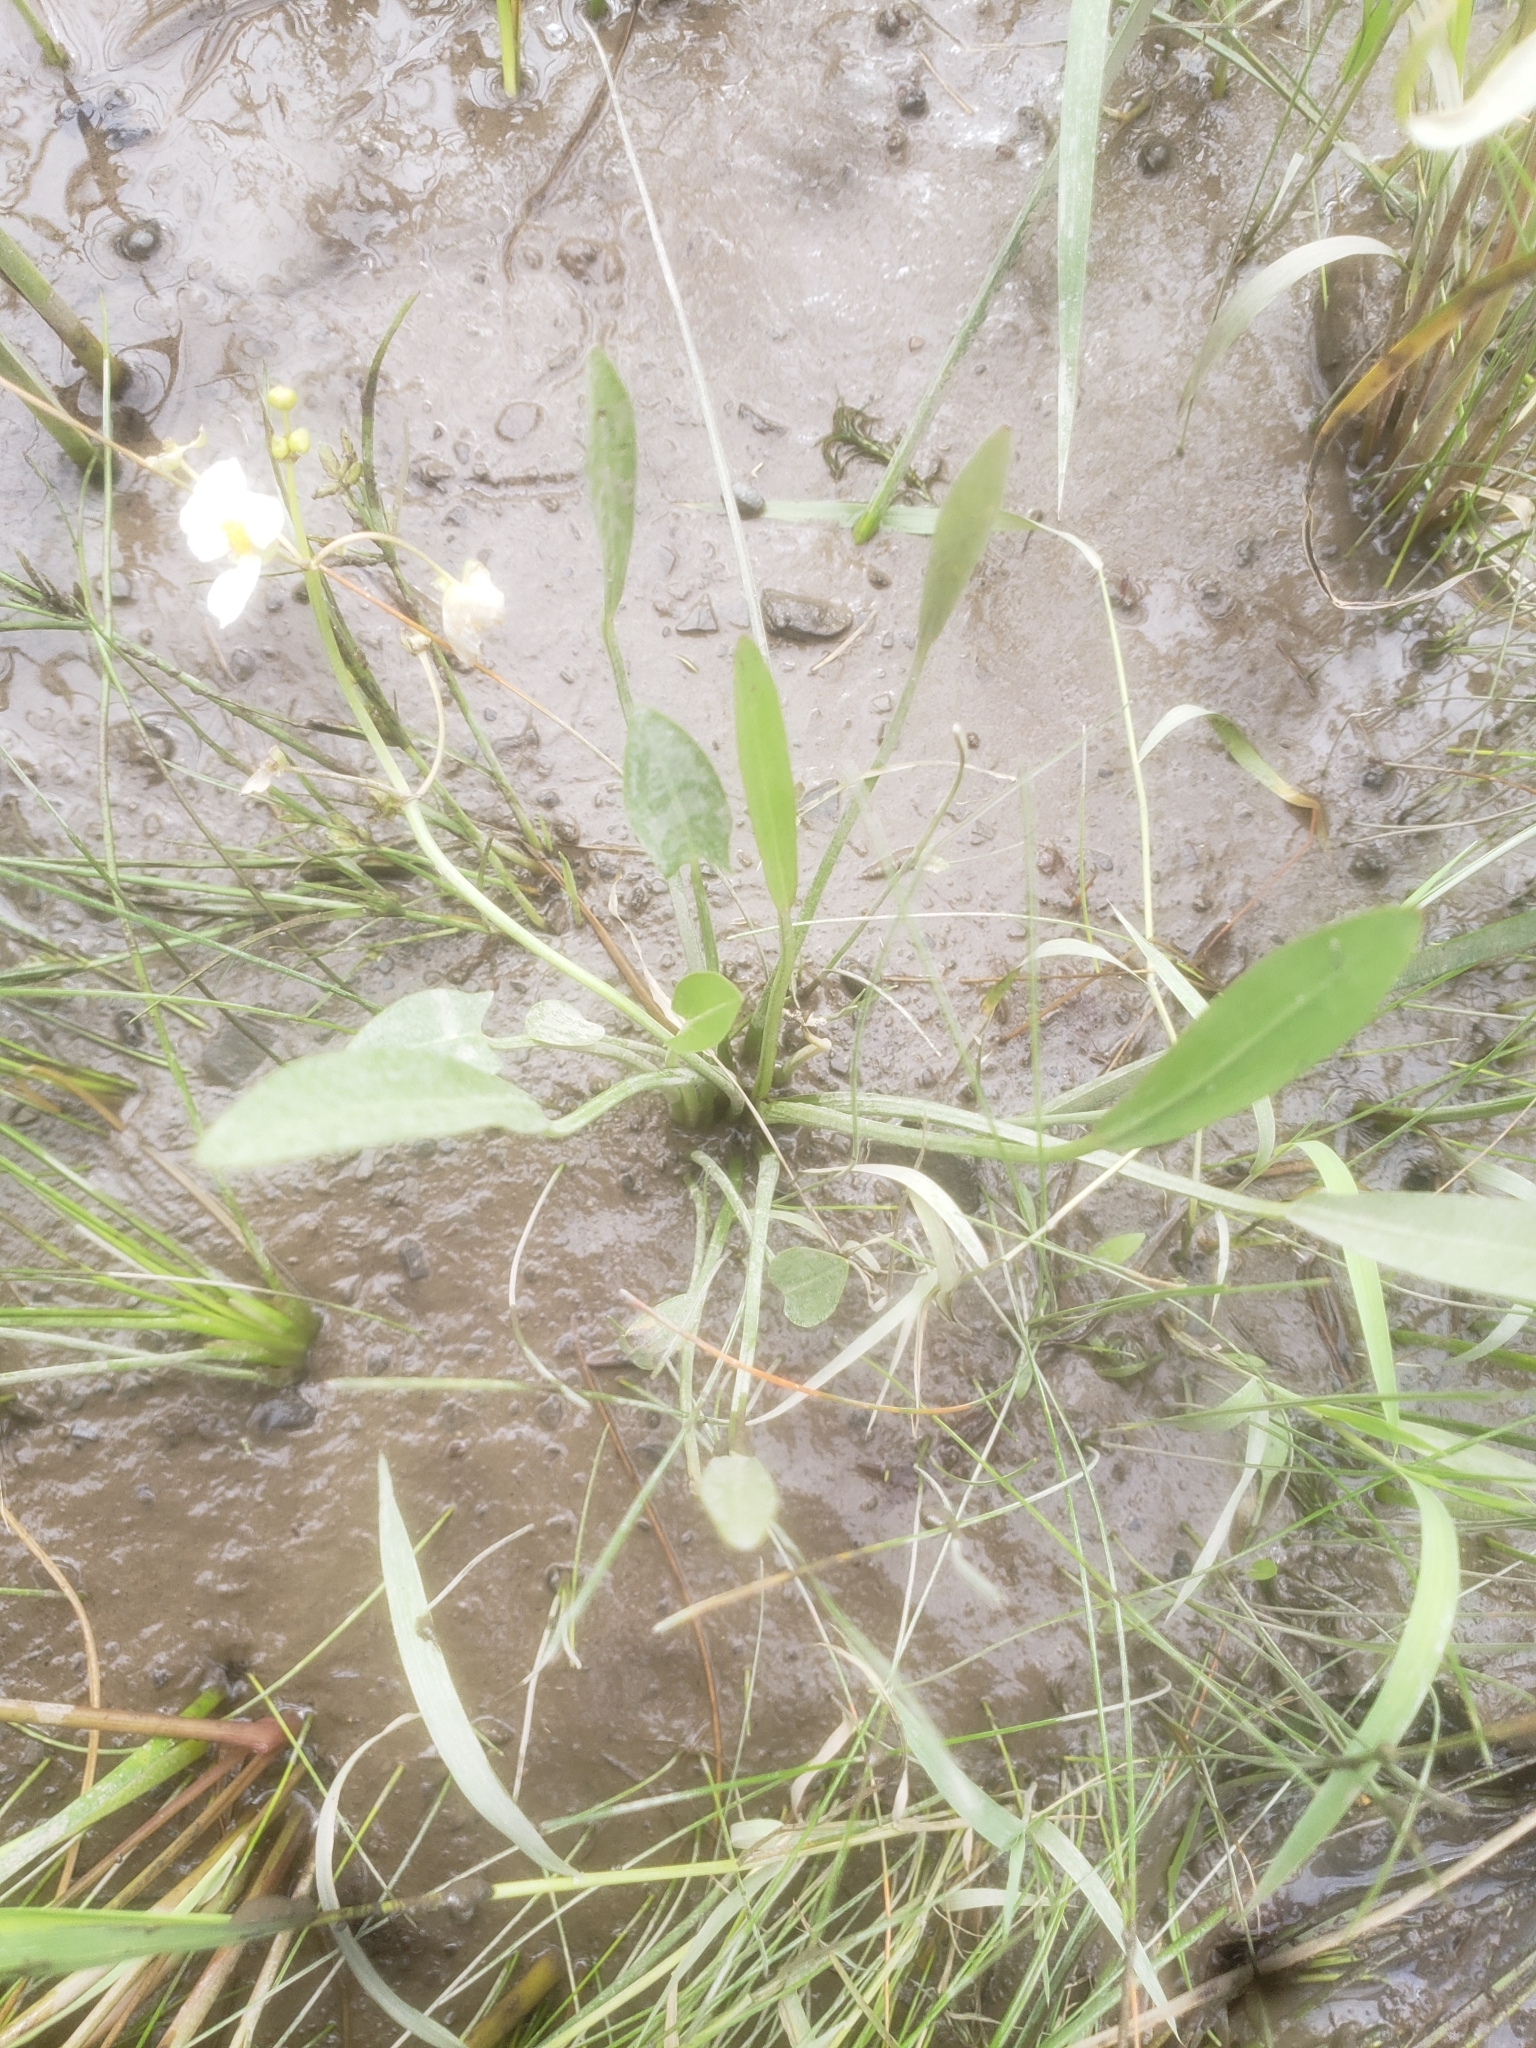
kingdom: Plantae
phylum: Tracheophyta
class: Liliopsida
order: Alismatales
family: Alismataceae
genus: Sagittaria
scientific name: Sagittaria rigida
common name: Canadian arrowhead
